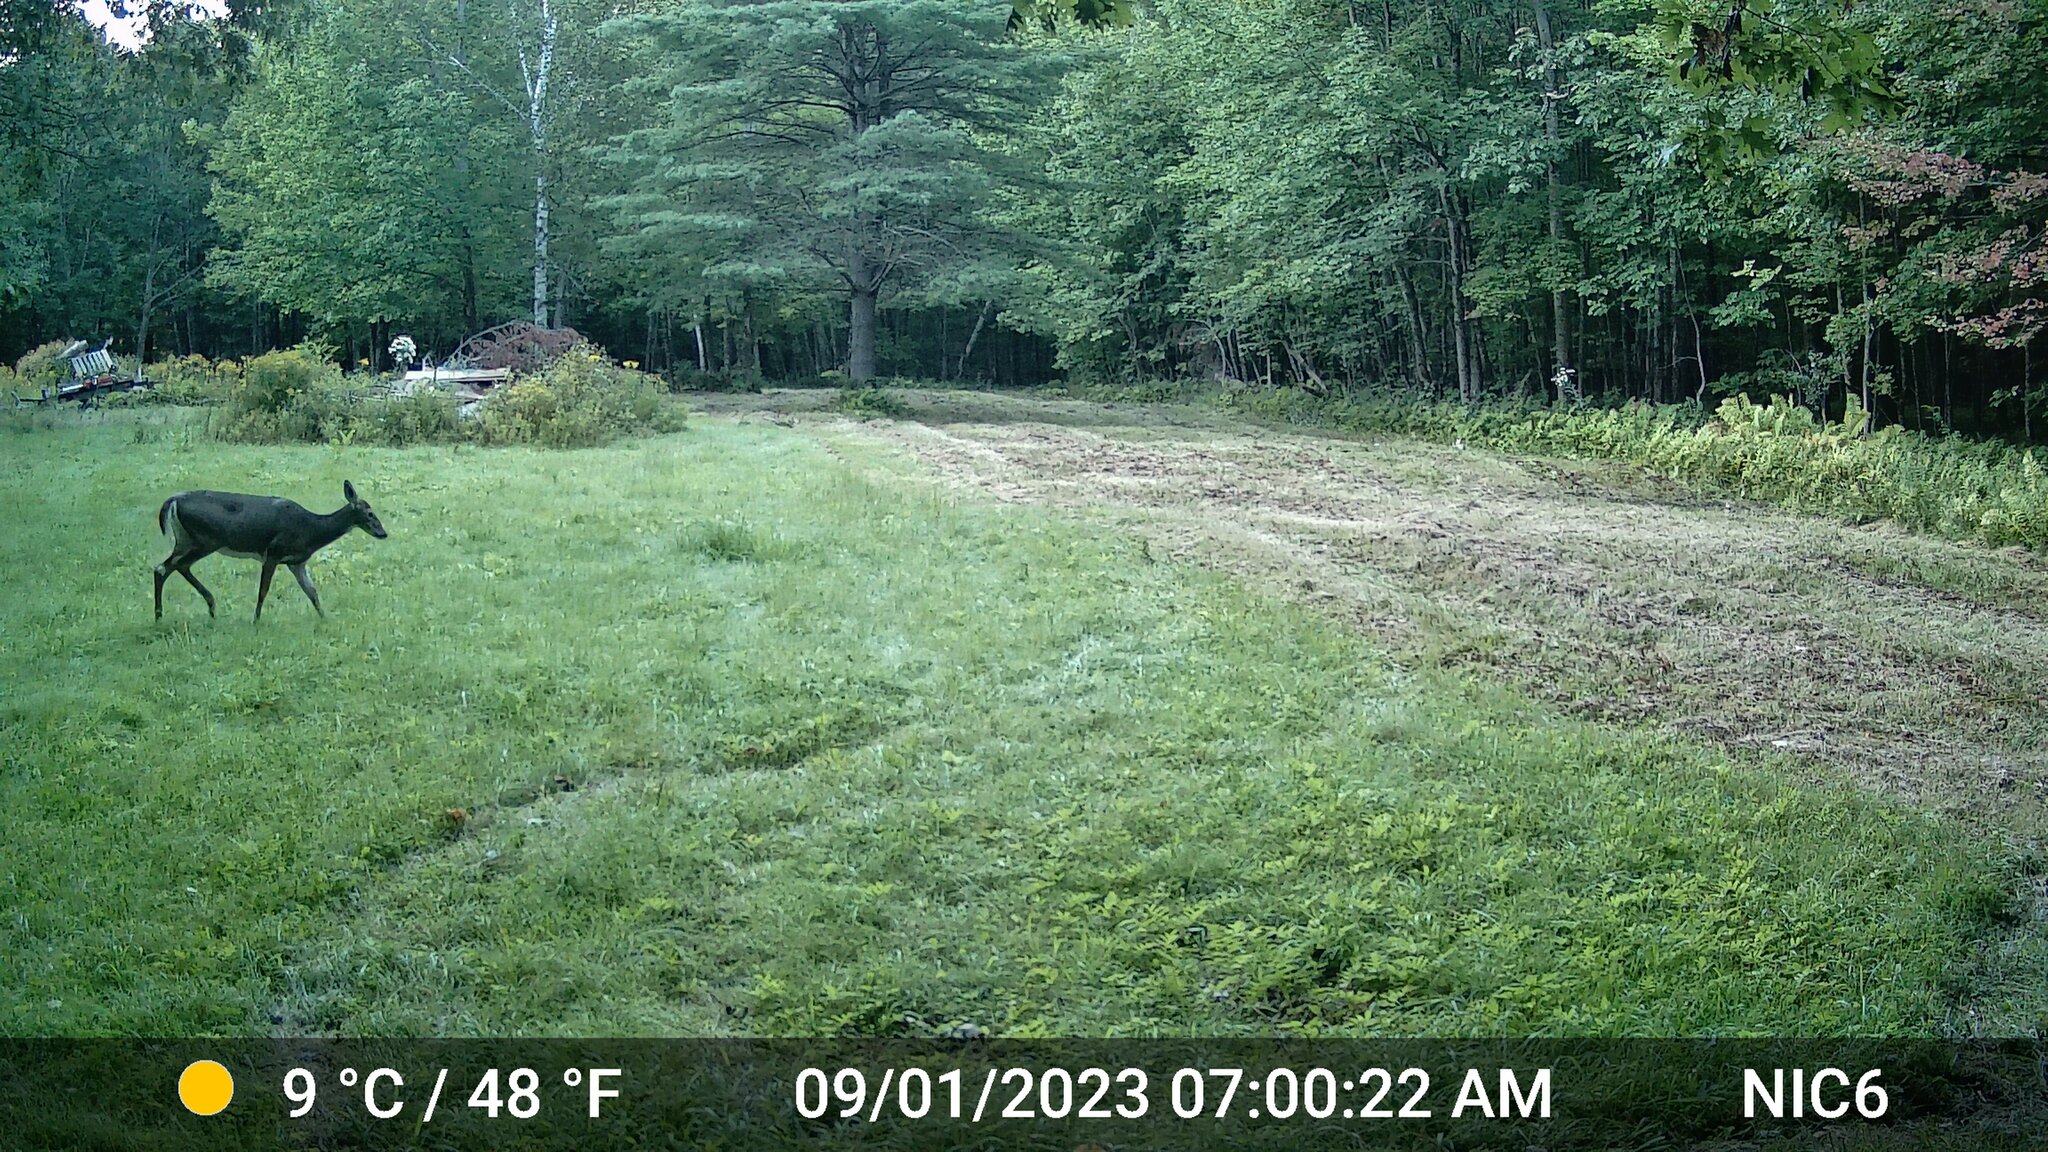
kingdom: Animalia
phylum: Chordata
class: Mammalia
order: Artiodactyla
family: Cervidae
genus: Odocoileus
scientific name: Odocoileus virginianus
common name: White-tailed deer
